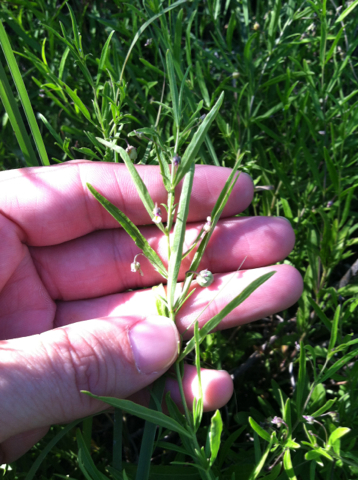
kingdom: Plantae
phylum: Tracheophyta
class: Magnoliopsida
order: Malpighiales
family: Violaceae
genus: Pombalia
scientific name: Pombalia verticillata
